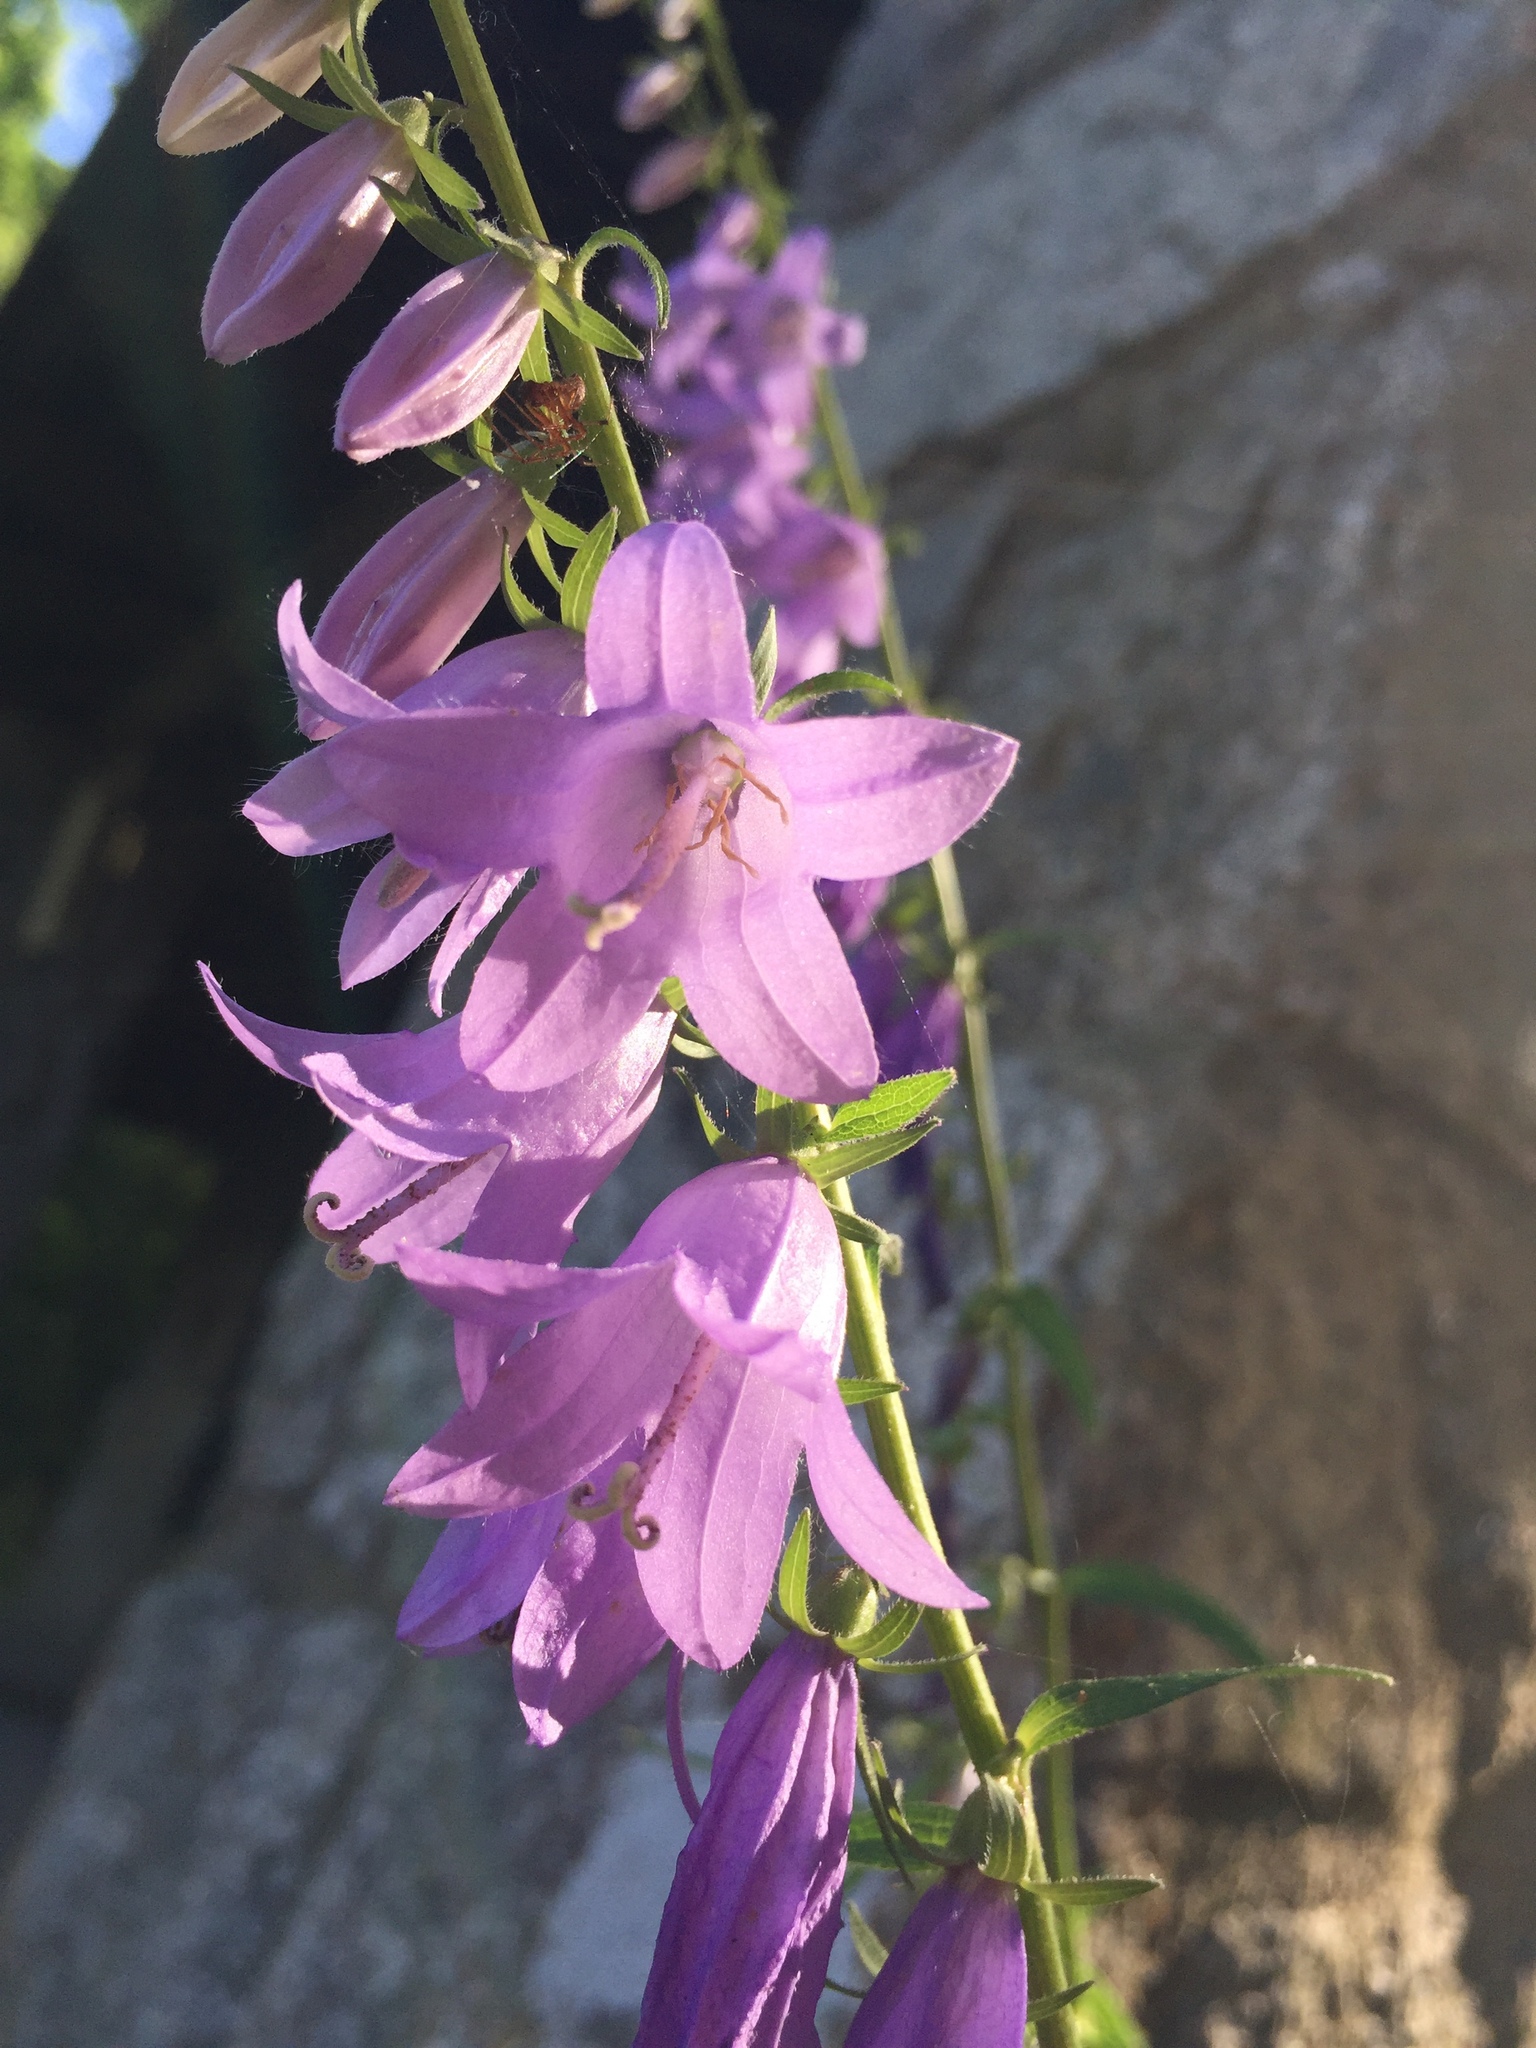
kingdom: Plantae
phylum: Tracheophyta
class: Magnoliopsida
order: Asterales
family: Campanulaceae
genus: Campanula
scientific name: Campanula rapunculoides
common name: Creeping bellflower
